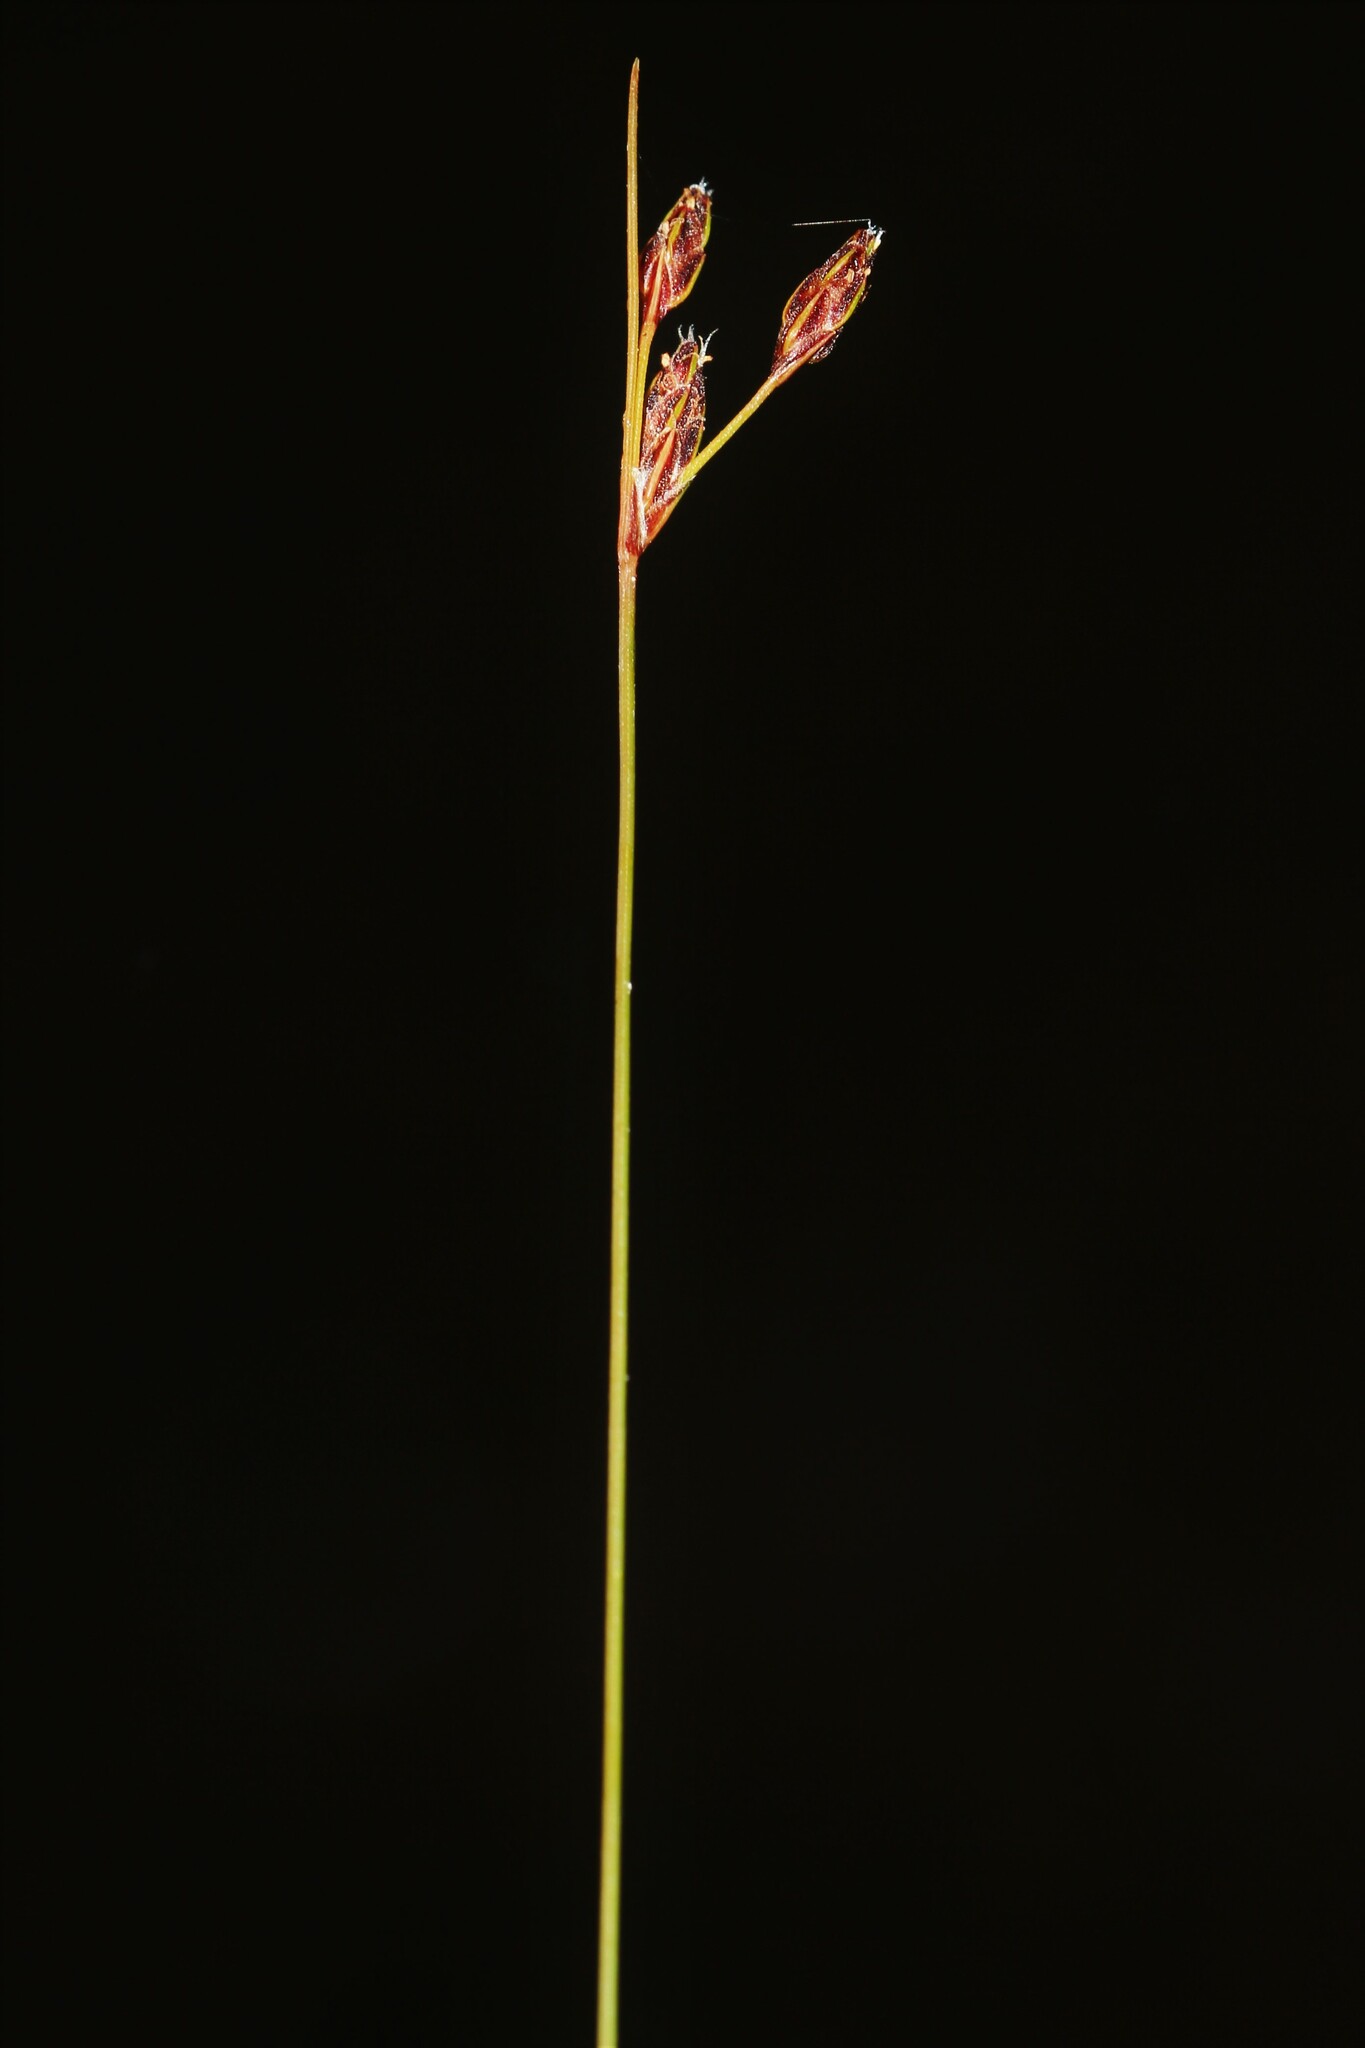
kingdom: Plantae
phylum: Tracheophyta
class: Liliopsida
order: Poales
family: Cyperaceae
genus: Bulbostylis
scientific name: Bulbostylis capillaris
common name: Densetuft hairsedge
